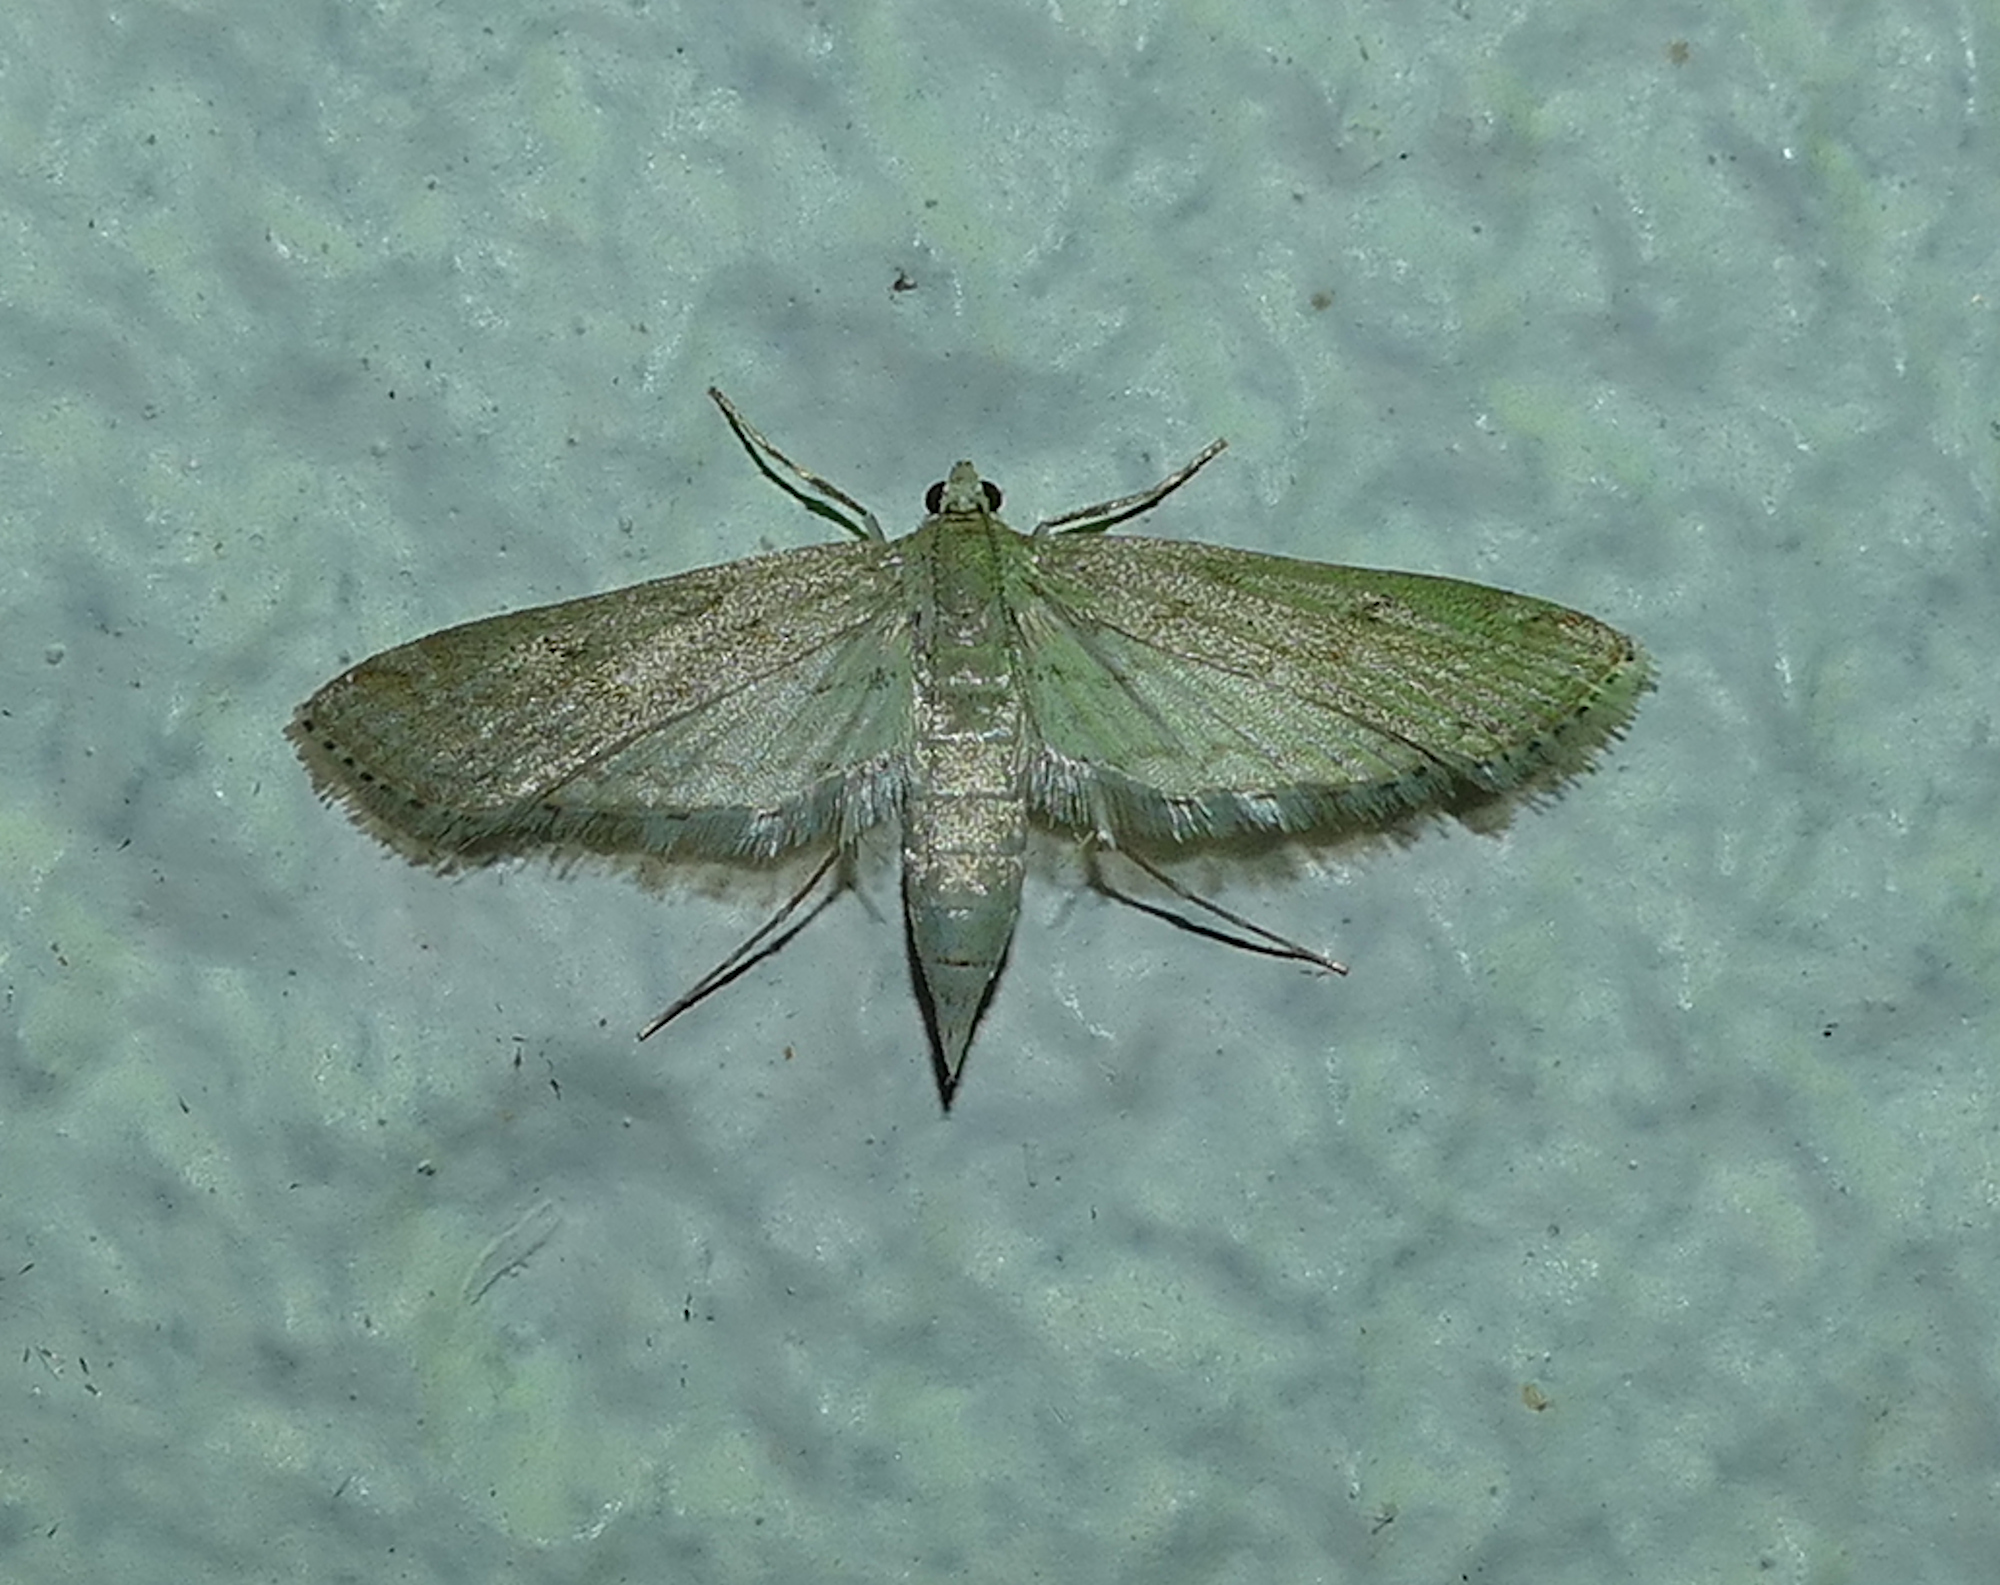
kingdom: Animalia
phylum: Arthropoda
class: Insecta
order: Lepidoptera
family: Crambidae
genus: Parapoynx
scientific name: Parapoynx allionealis
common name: Bladderwort casemaker
